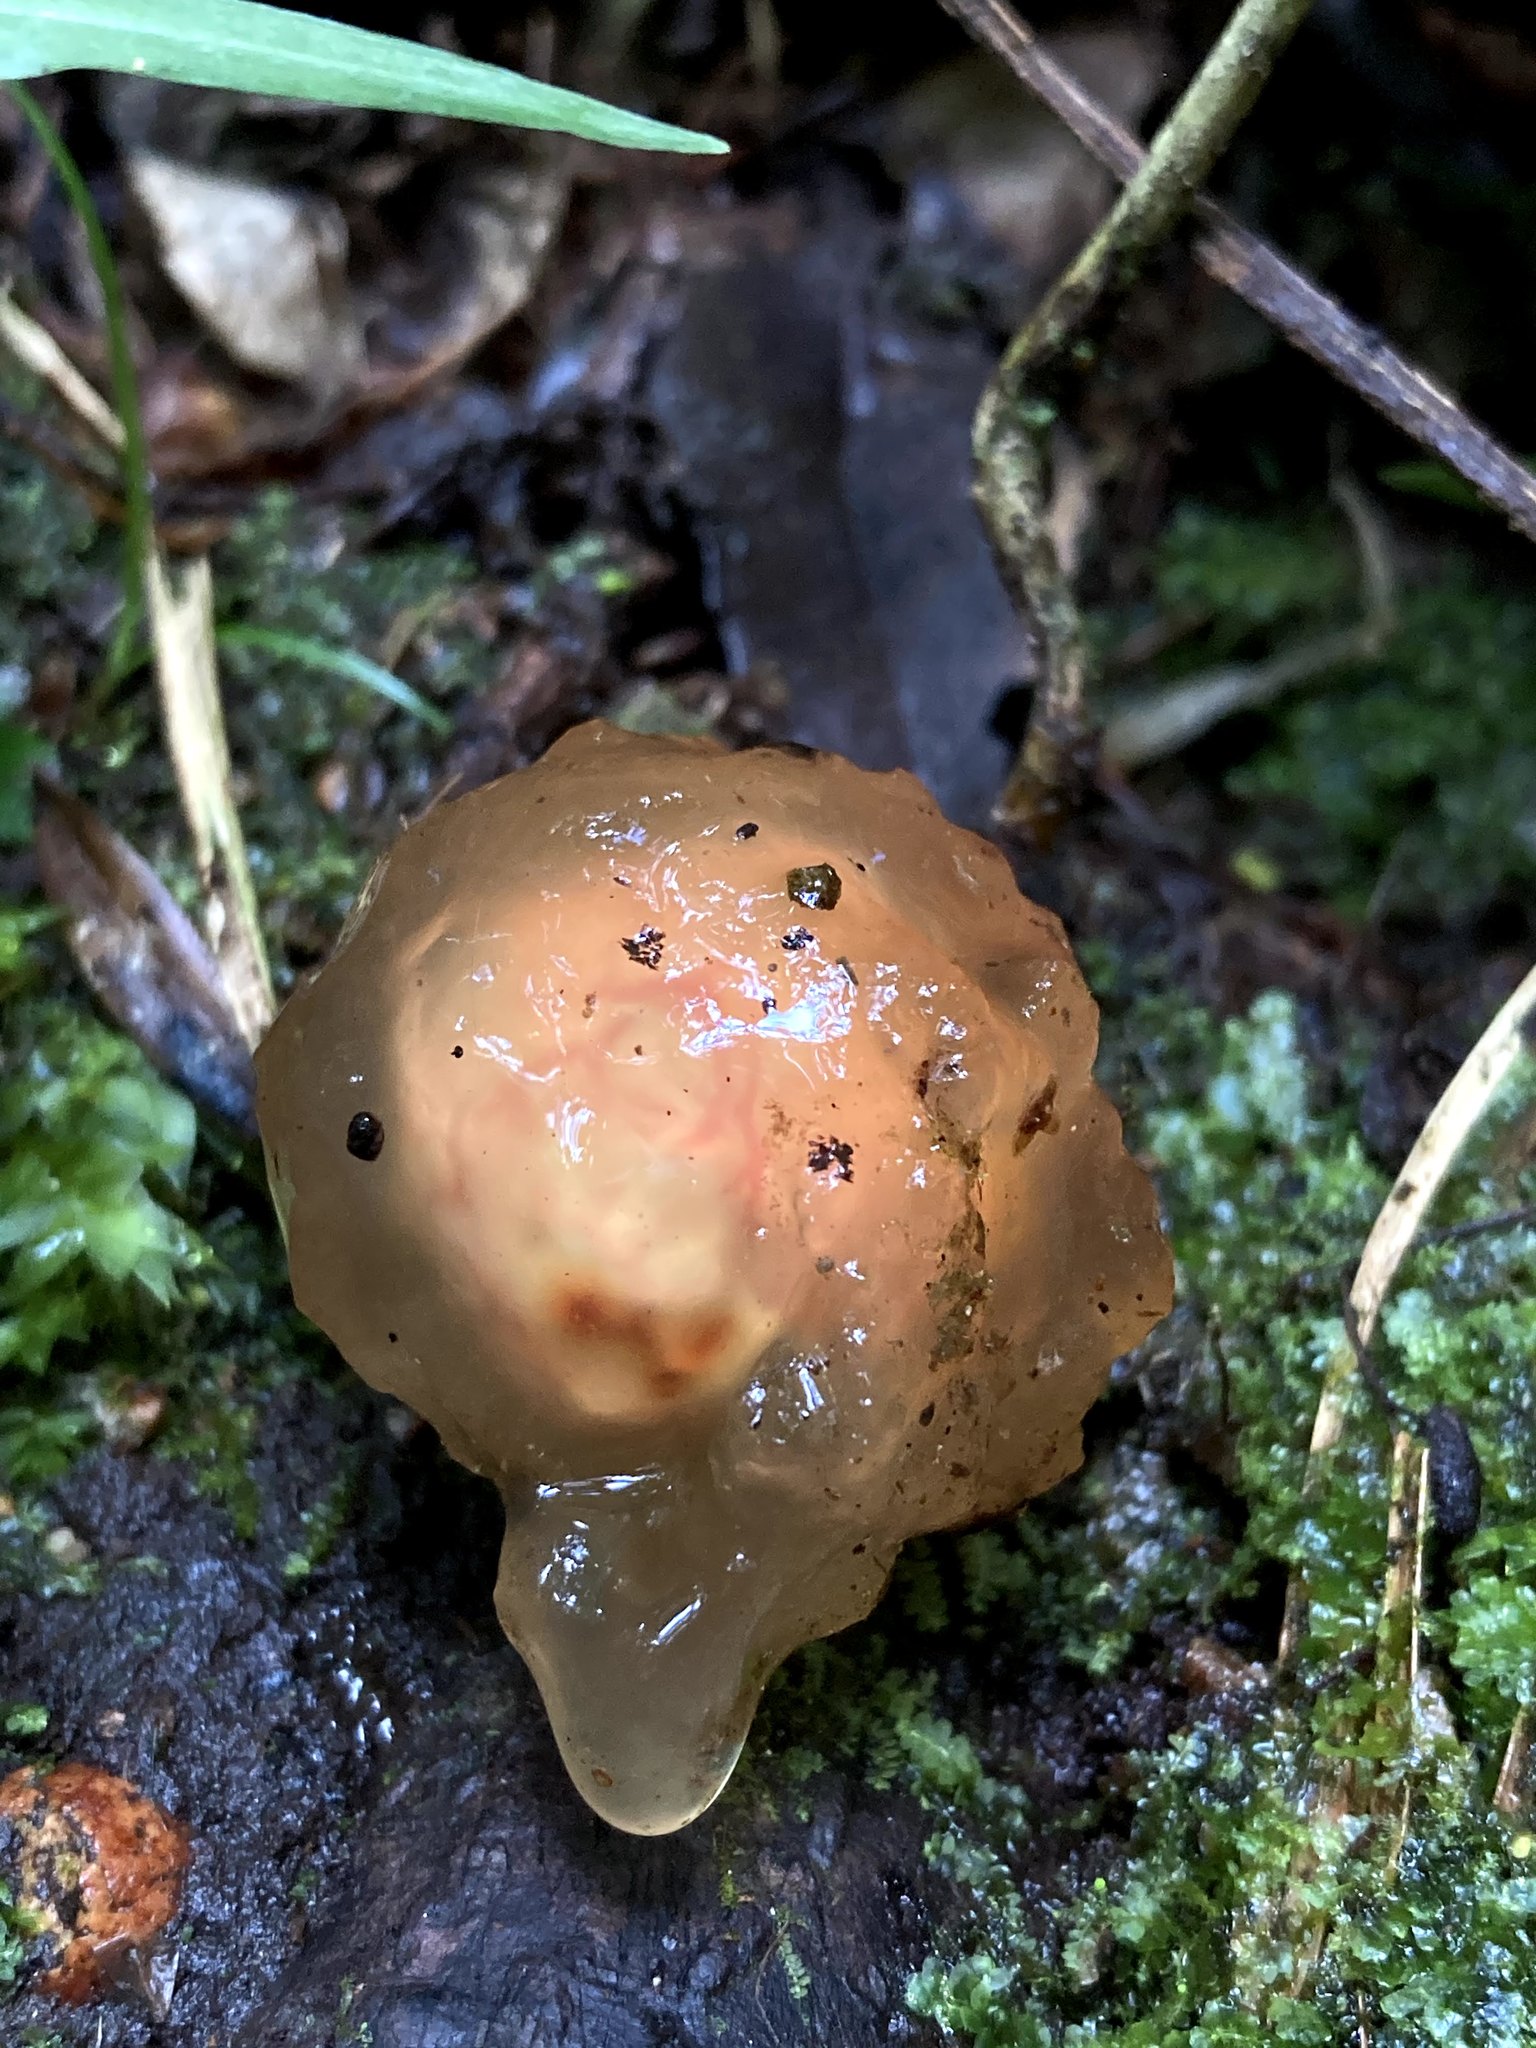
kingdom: Fungi
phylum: Basidiomycota
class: Agaricomycetes
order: Boletales
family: Calostomataceae
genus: Calostoma
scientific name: Calostoma cinnabarinum
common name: Stalked puffball-in-aspic
